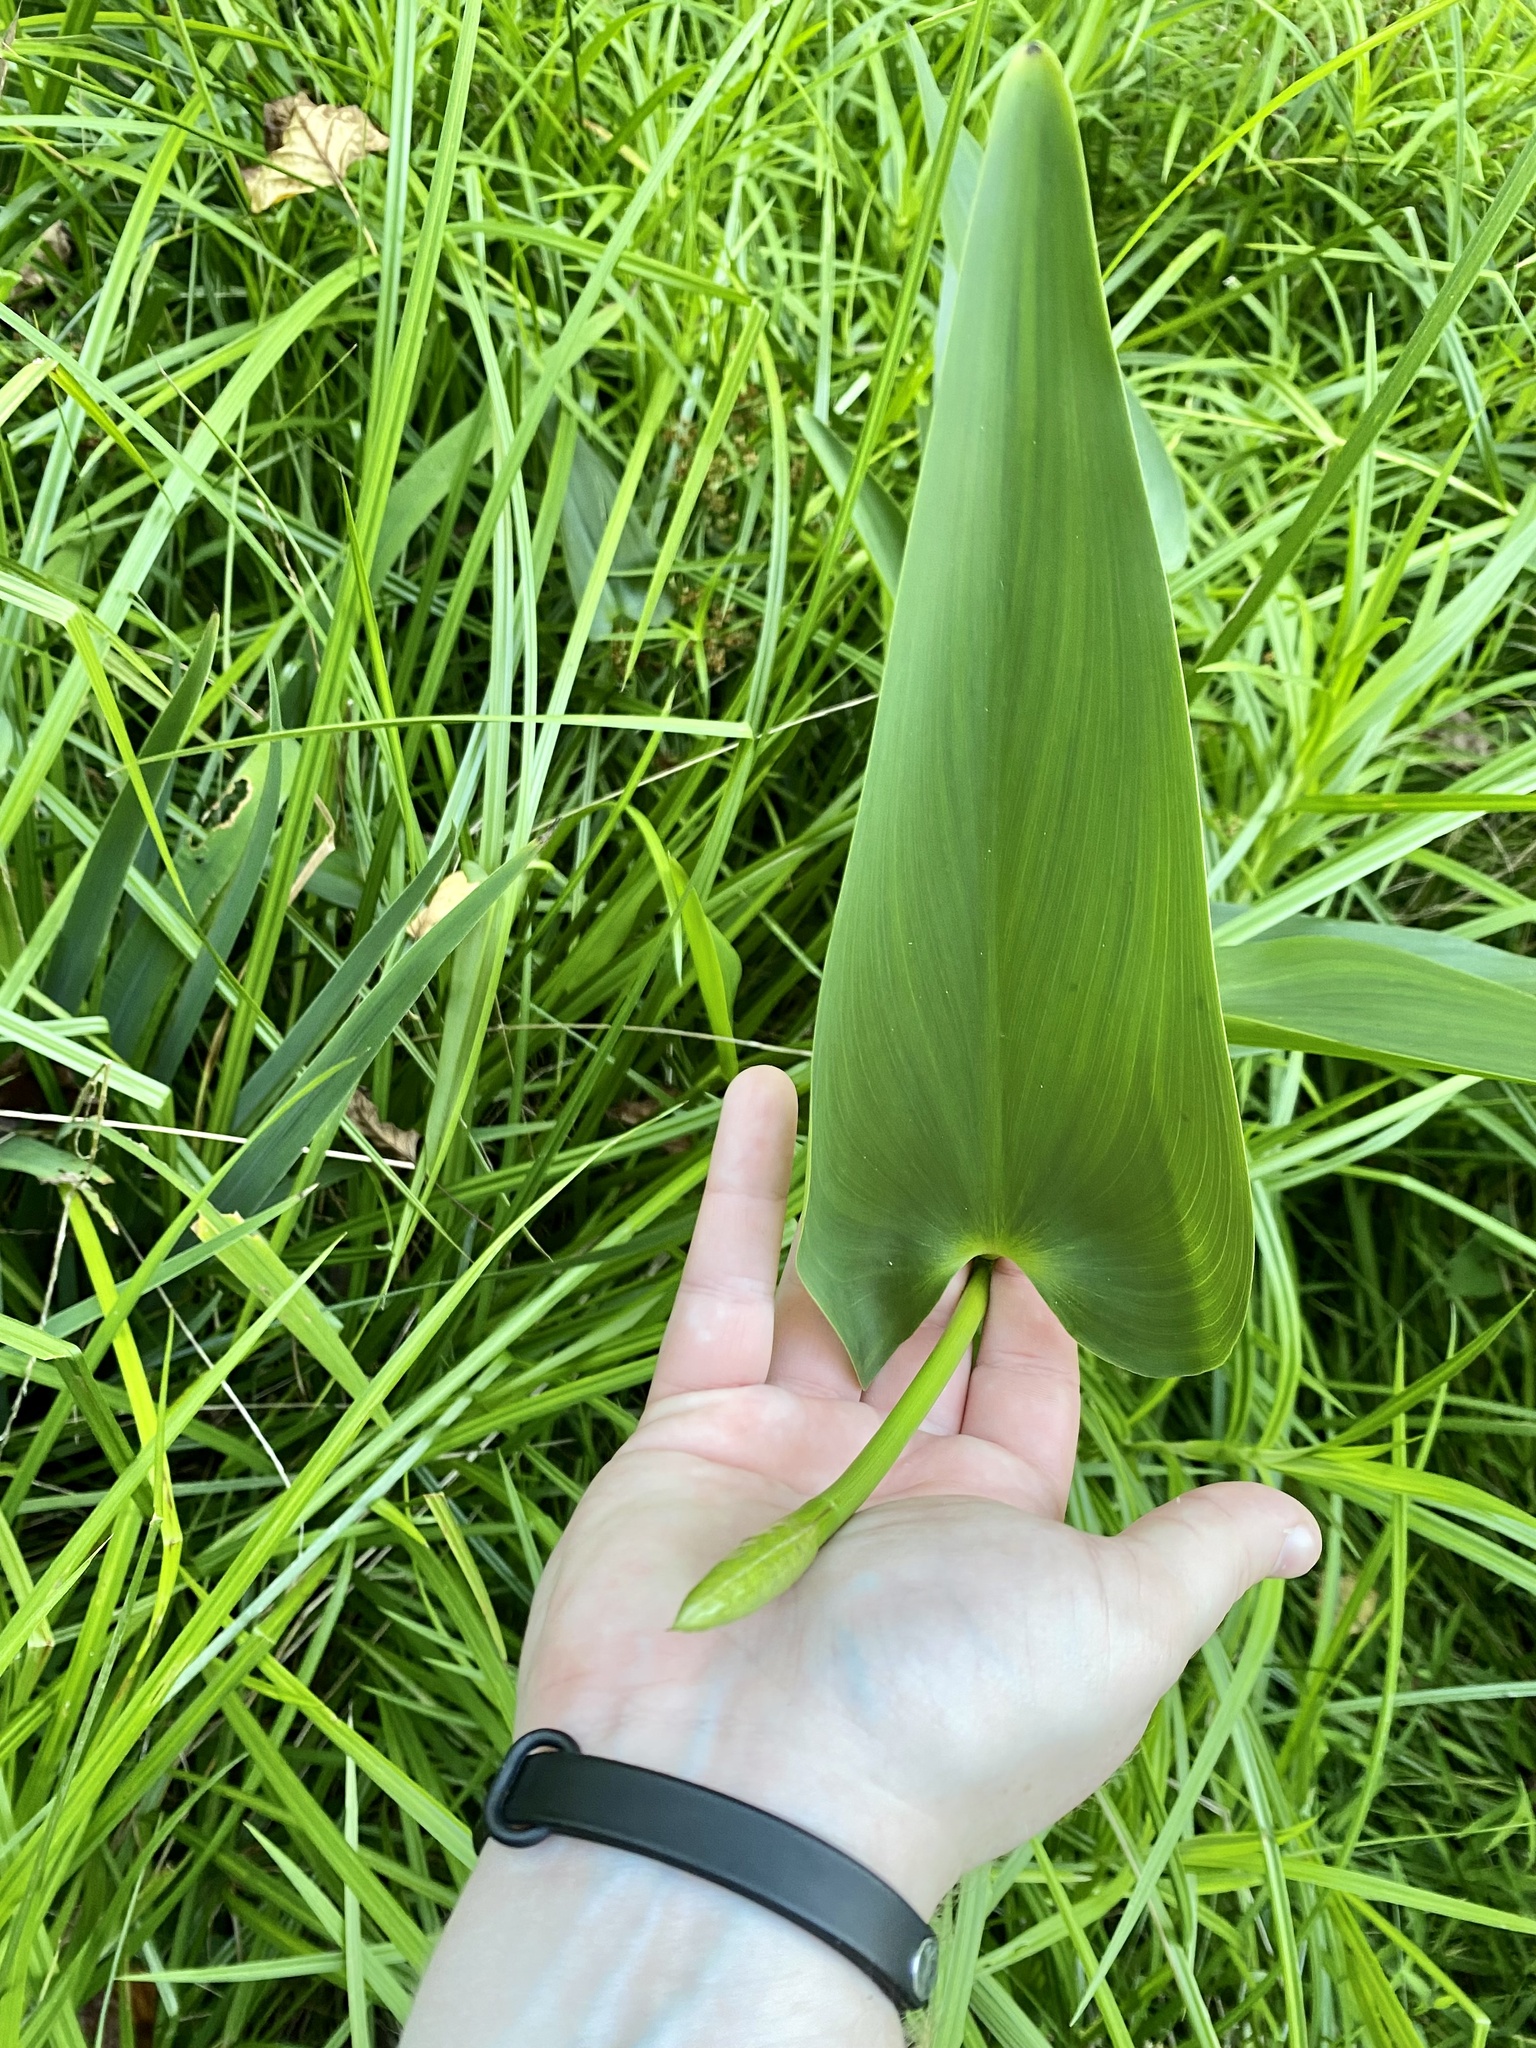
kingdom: Plantae
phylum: Tracheophyta
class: Liliopsida
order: Commelinales
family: Pontederiaceae
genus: Pontederia
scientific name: Pontederia cordata
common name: Pickerelweed
